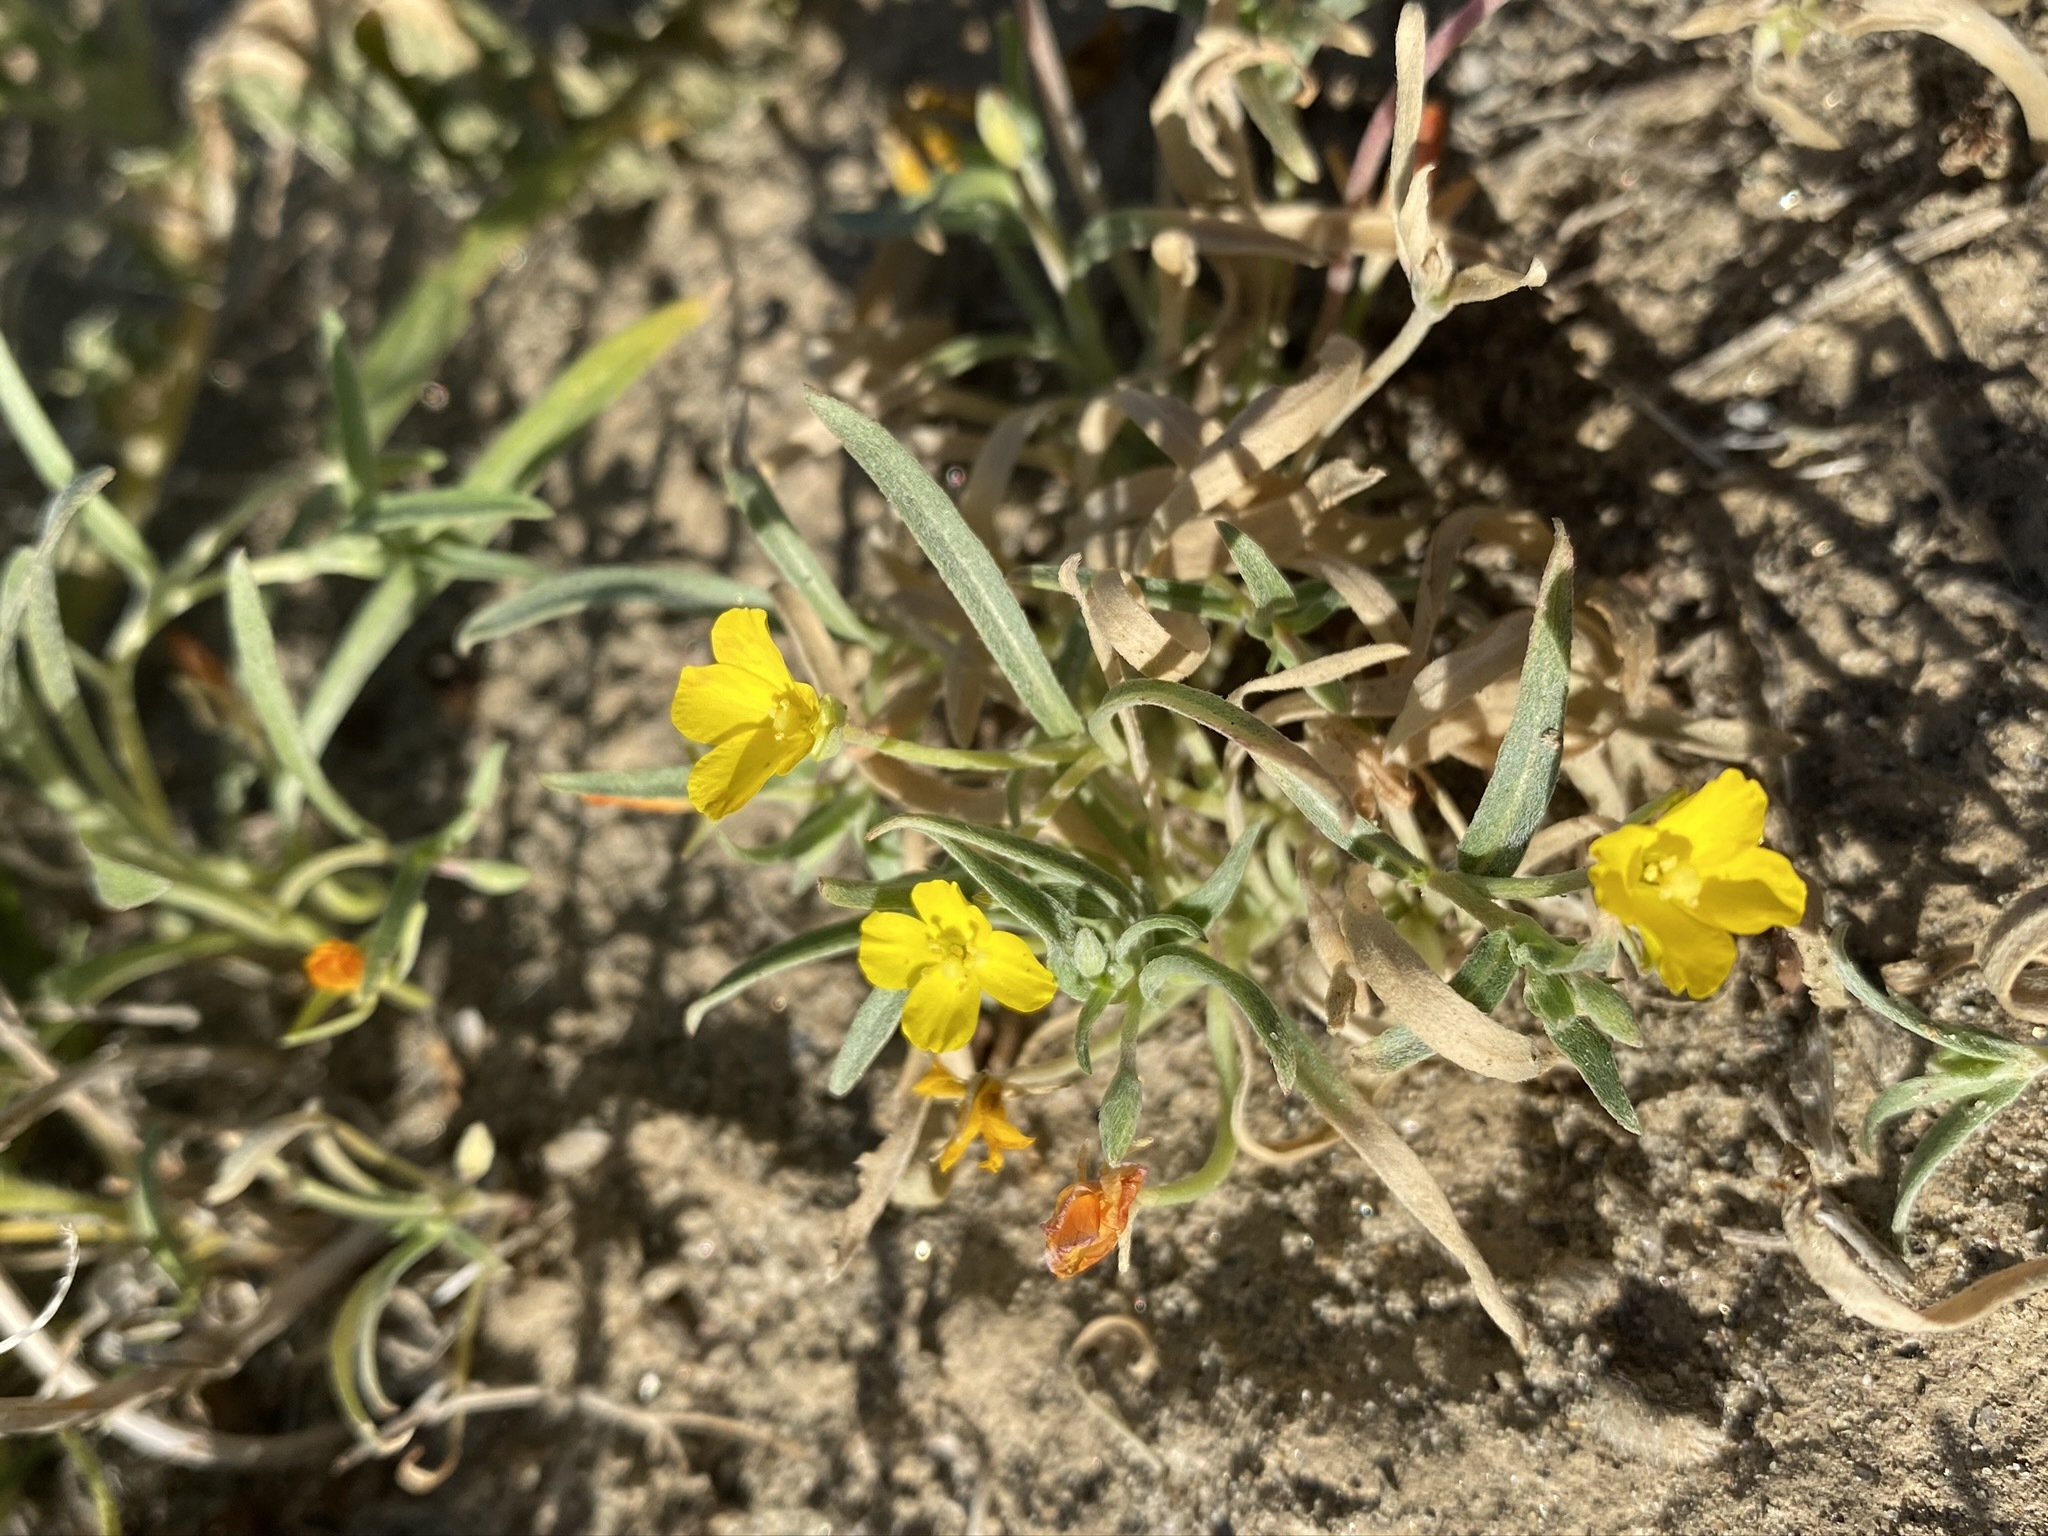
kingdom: Plantae
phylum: Tracheophyta
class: Magnoliopsida
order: Myrtales
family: Onagraceae
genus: Camissoniopsis
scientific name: Camissoniopsis pallida
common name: Paleyellow suncup
